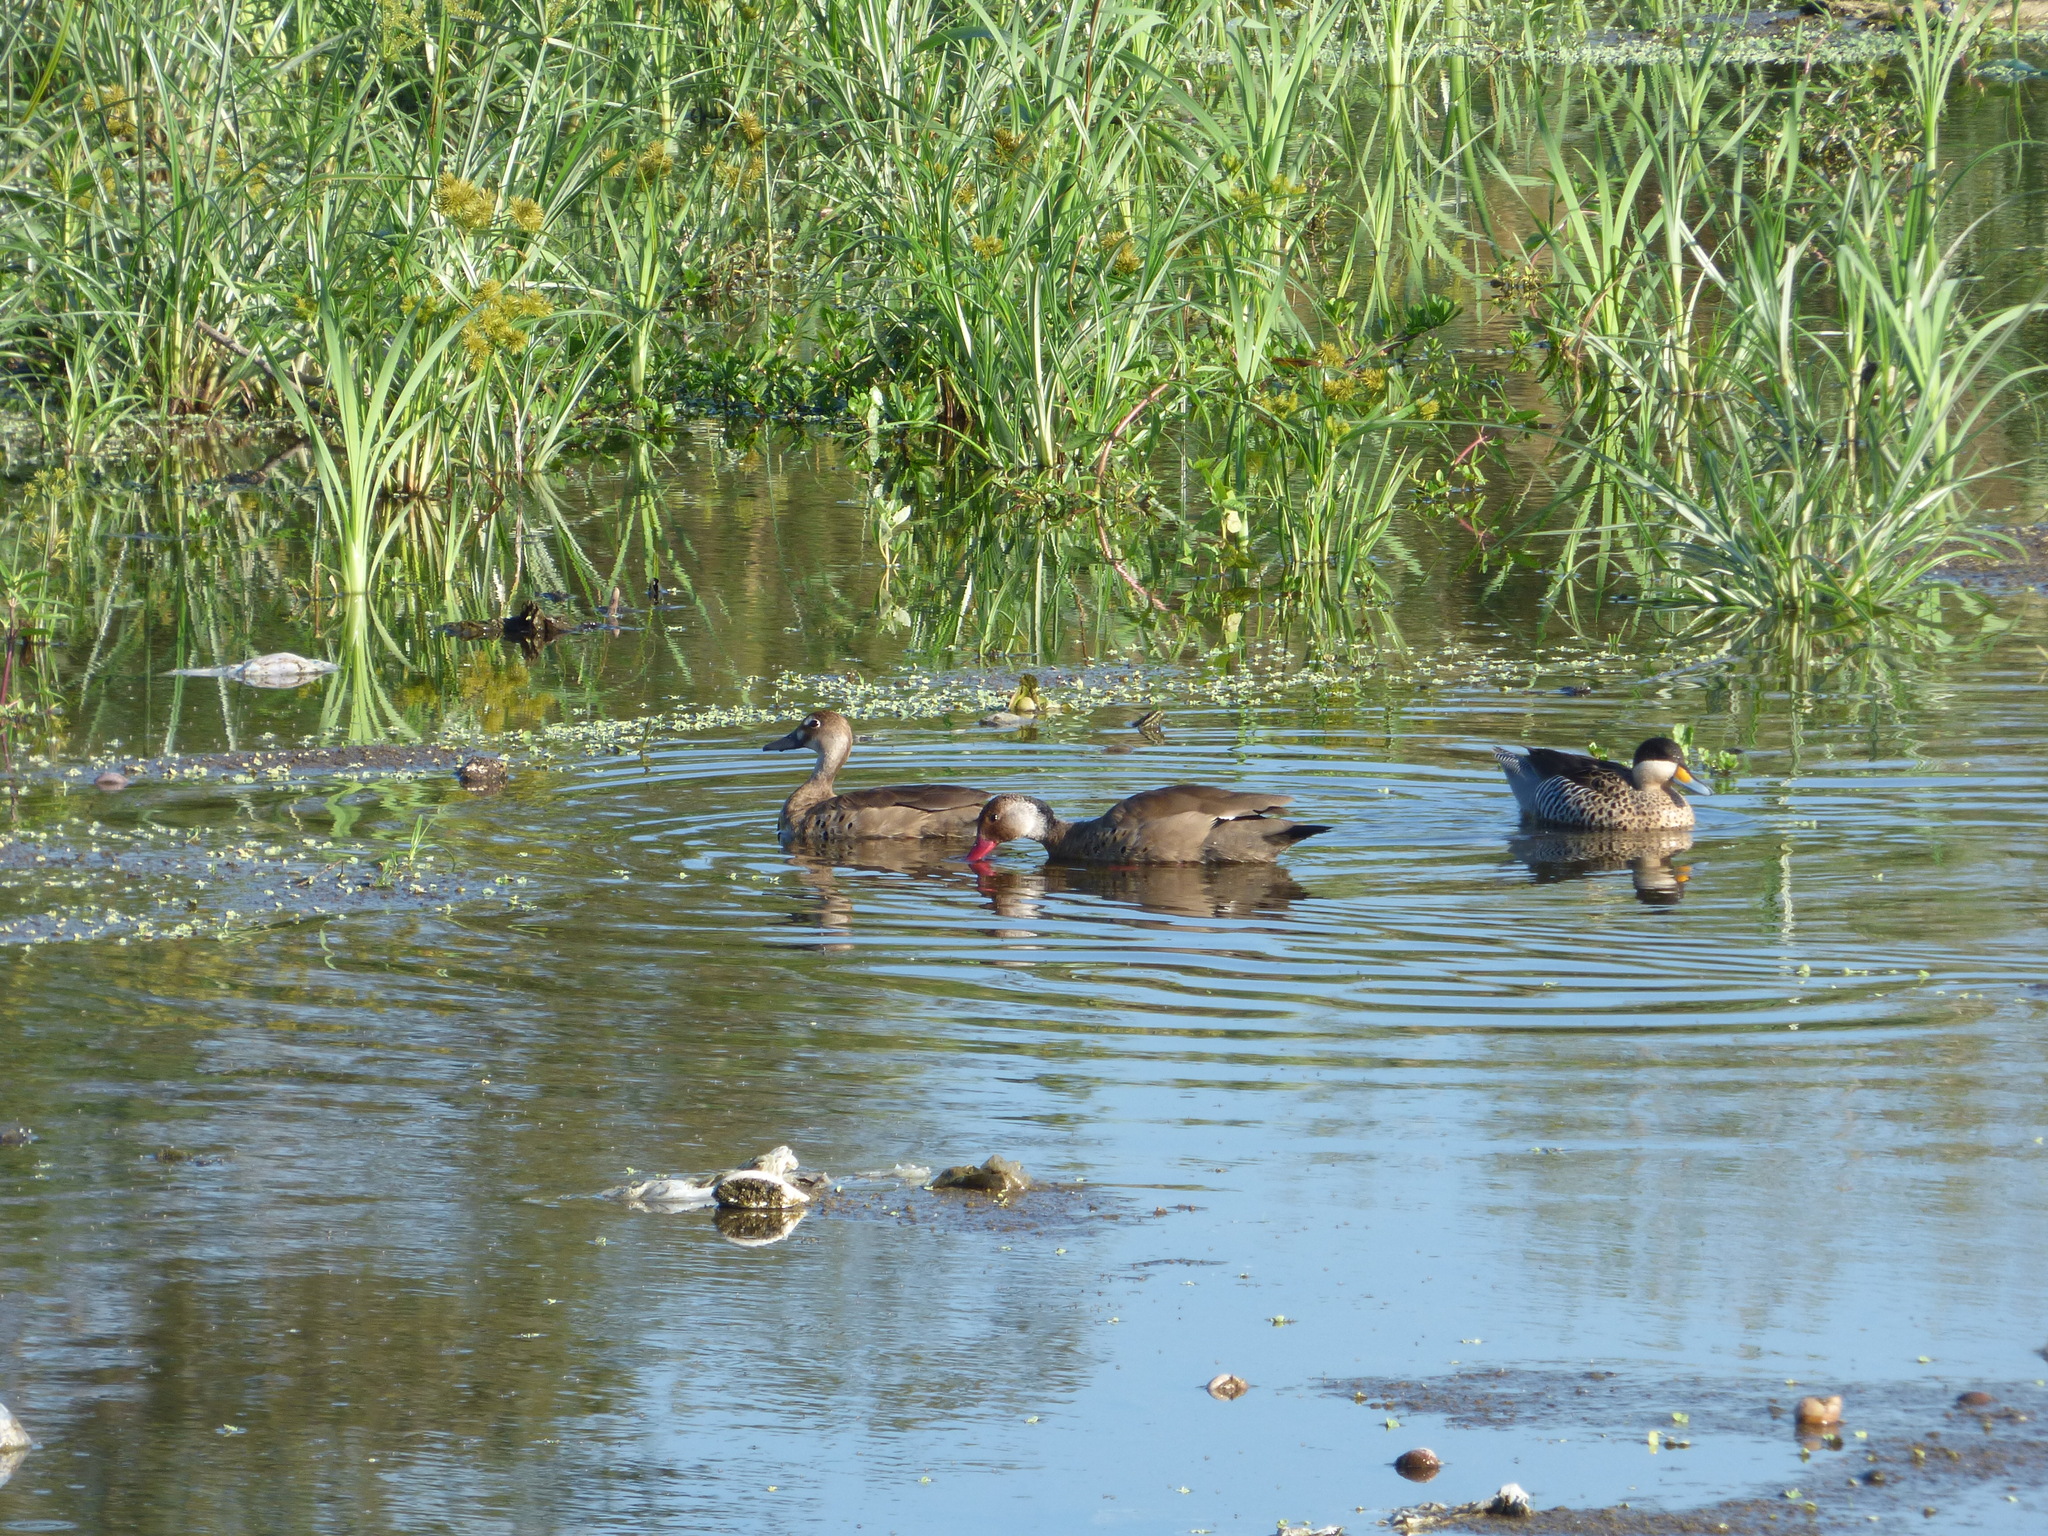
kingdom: Animalia
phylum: Chordata
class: Aves
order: Anseriformes
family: Anatidae
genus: Amazonetta
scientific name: Amazonetta brasiliensis
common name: Brazilian teal
